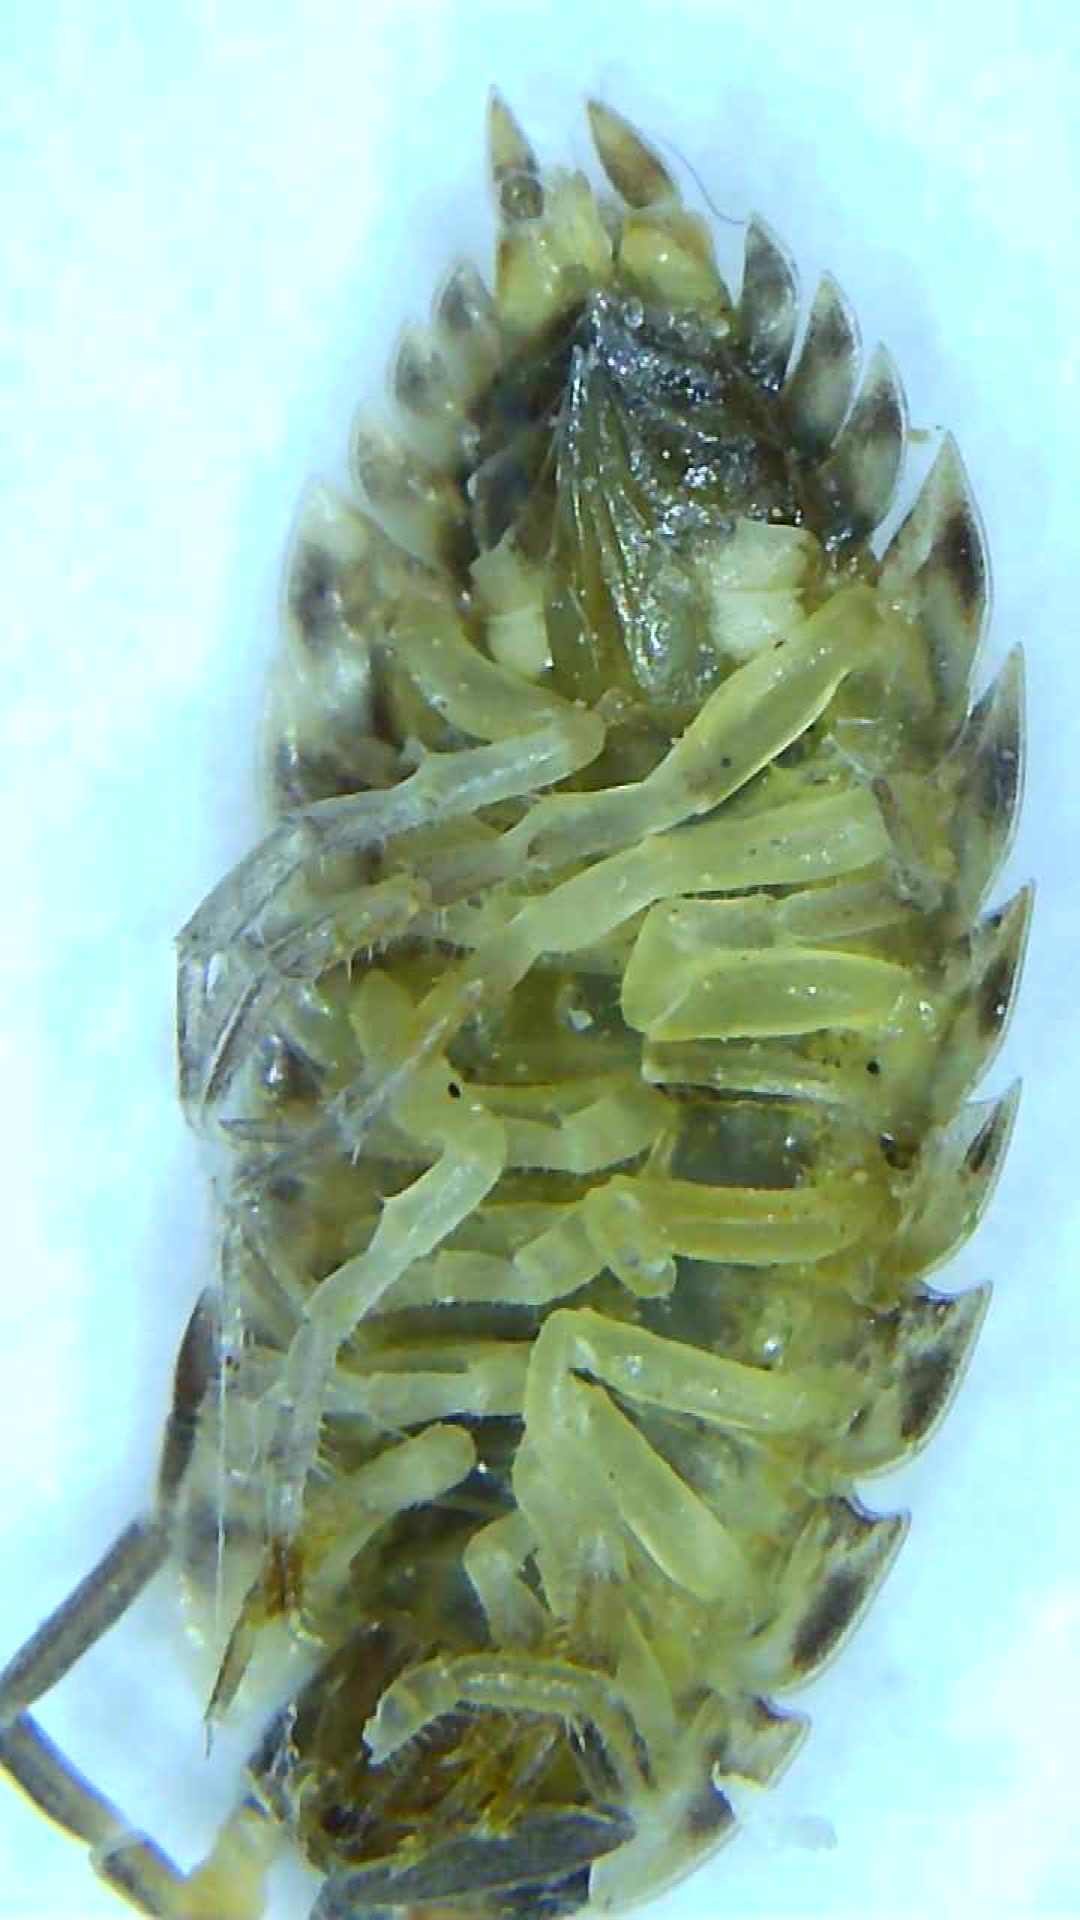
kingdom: Animalia
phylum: Arthropoda
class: Malacostraca
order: Isopoda
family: Porcellionidae
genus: Porcellio
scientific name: Porcellio spinicornis
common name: Painted woodlouse
